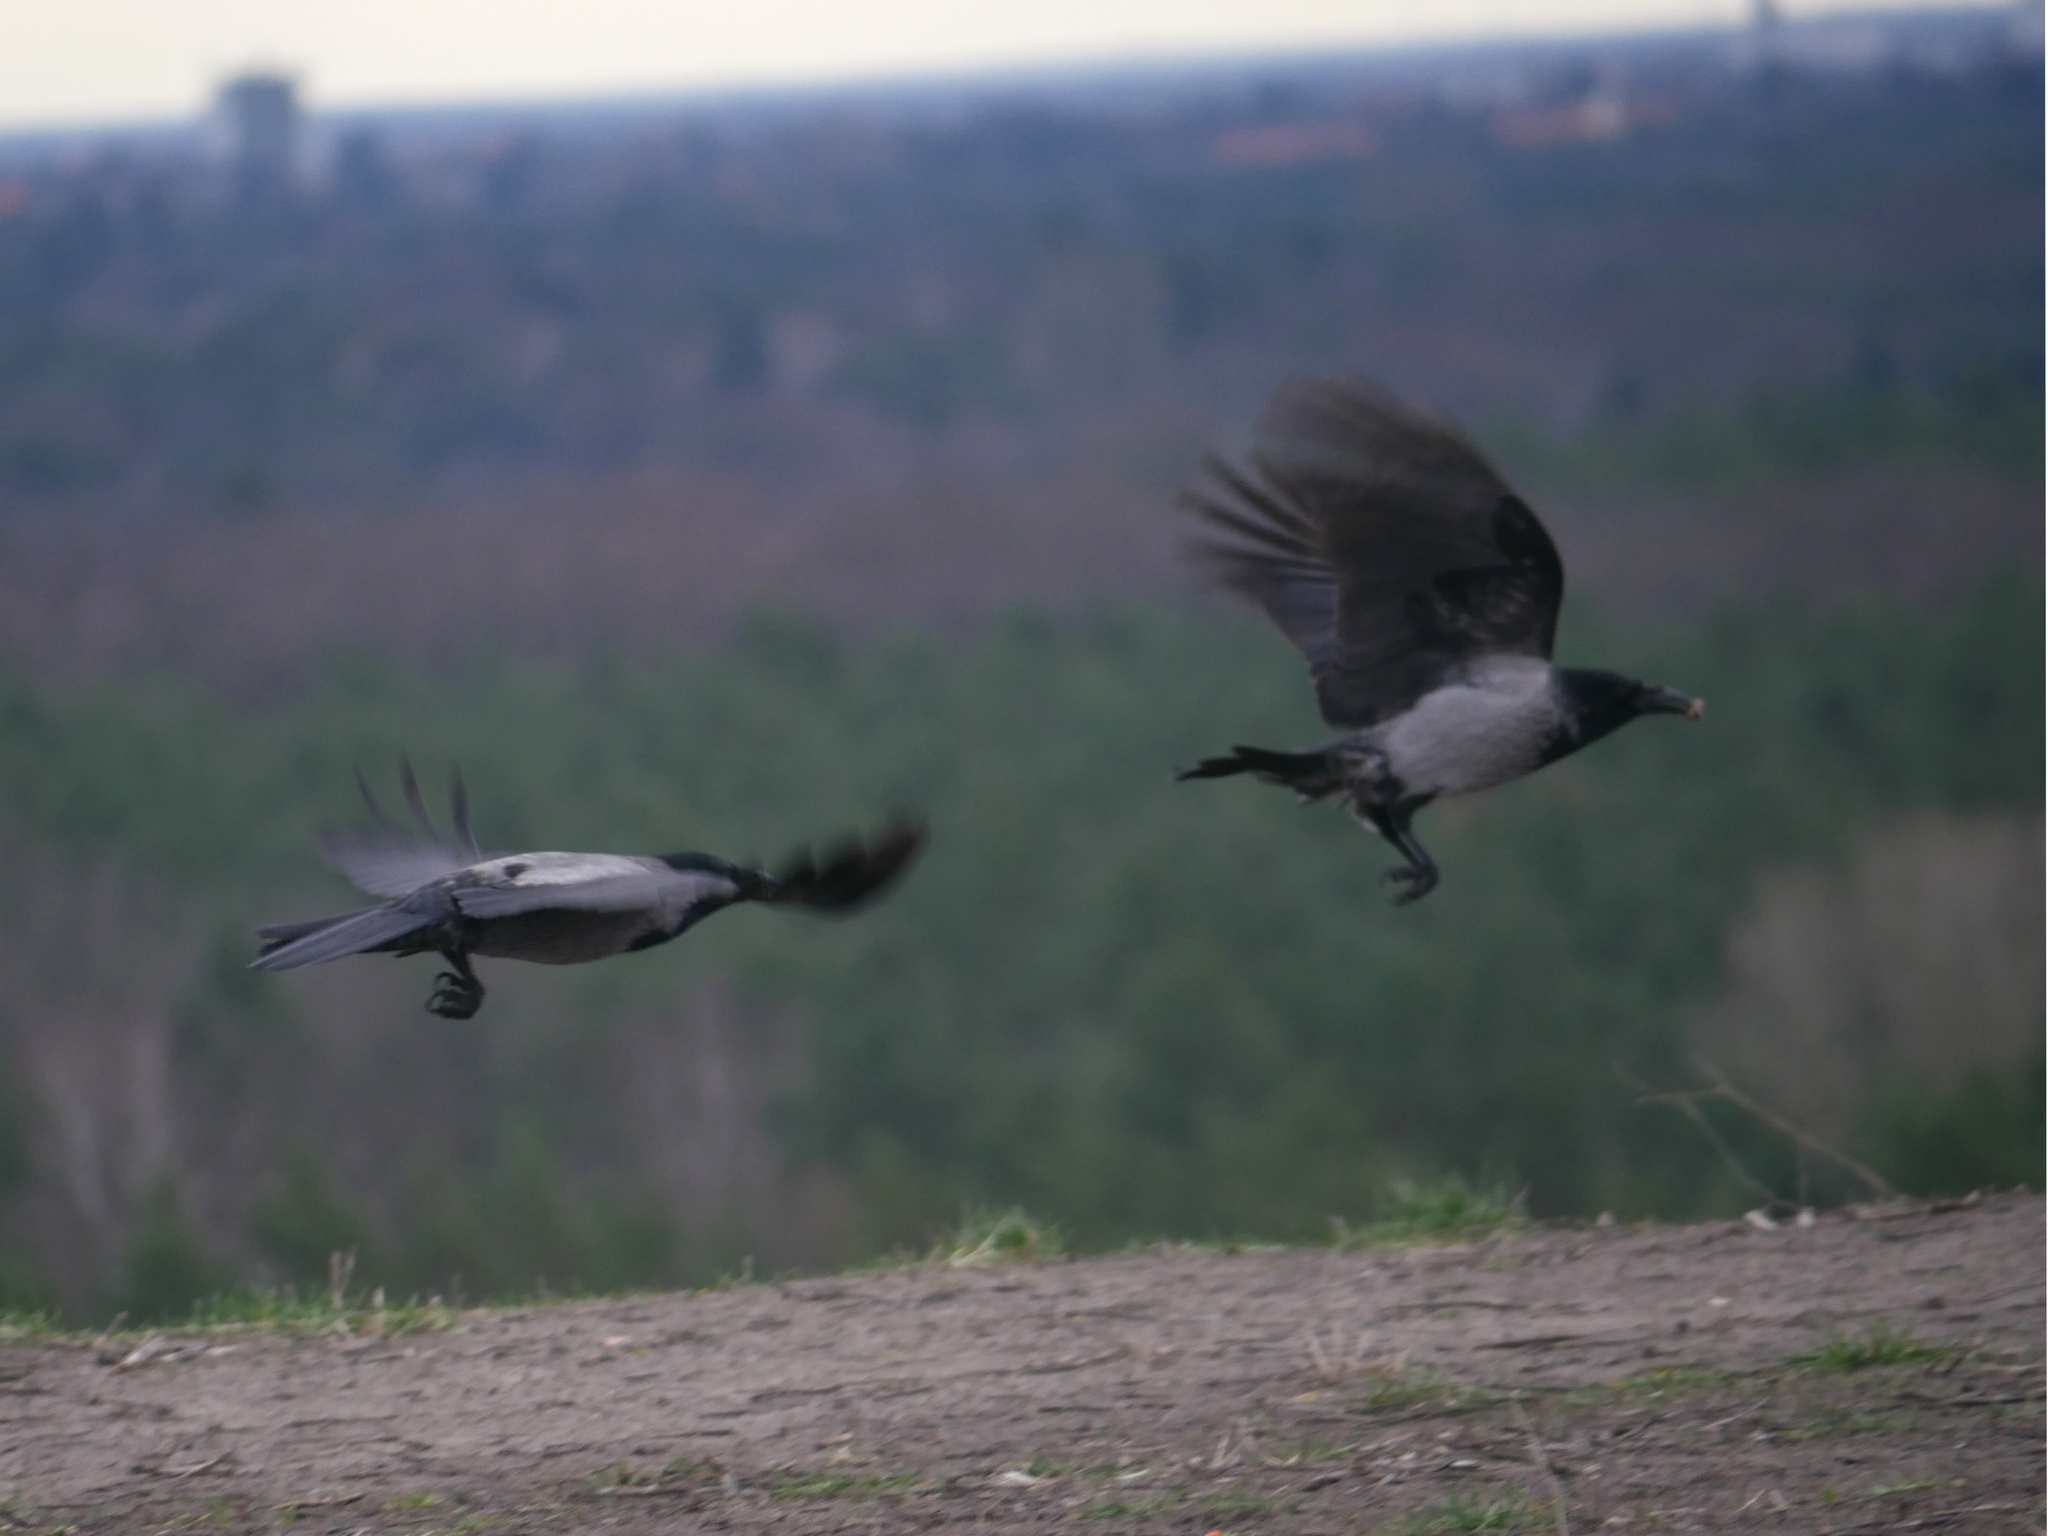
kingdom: Animalia
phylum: Chordata
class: Aves
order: Passeriformes
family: Corvidae
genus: Corvus
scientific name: Corvus cornix
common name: Hooded crow
